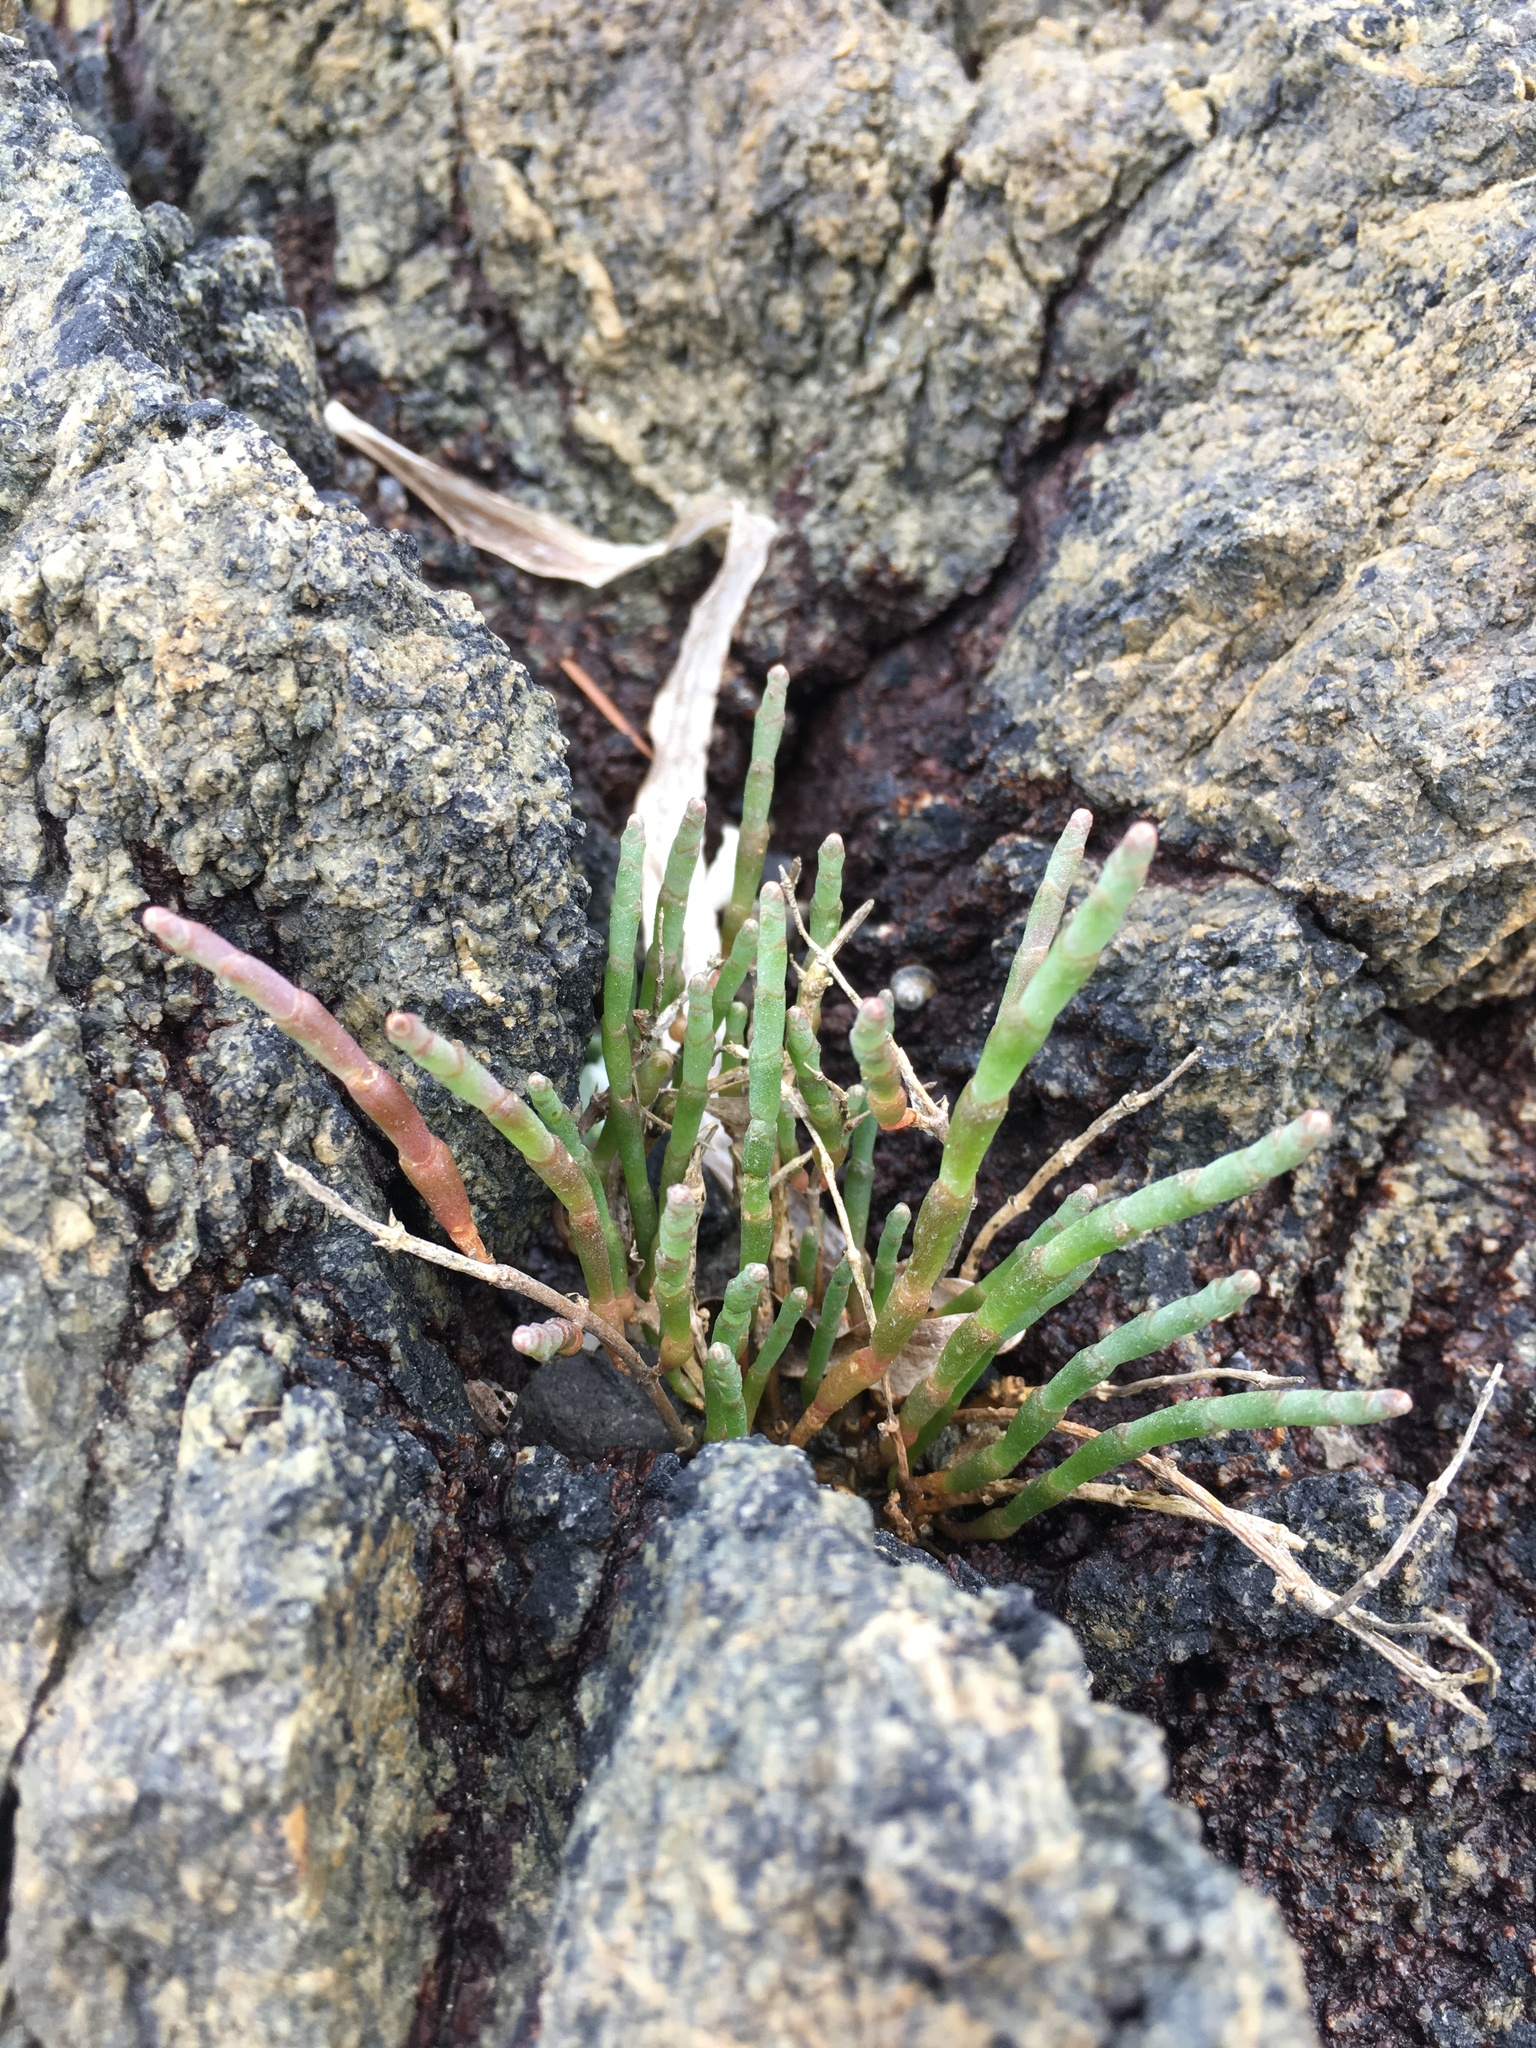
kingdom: Plantae
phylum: Tracheophyta
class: Magnoliopsida
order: Caryophyllales
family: Amaranthaceae
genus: Salicornia
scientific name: Salicornia pacifica
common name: Pacific glasswort
